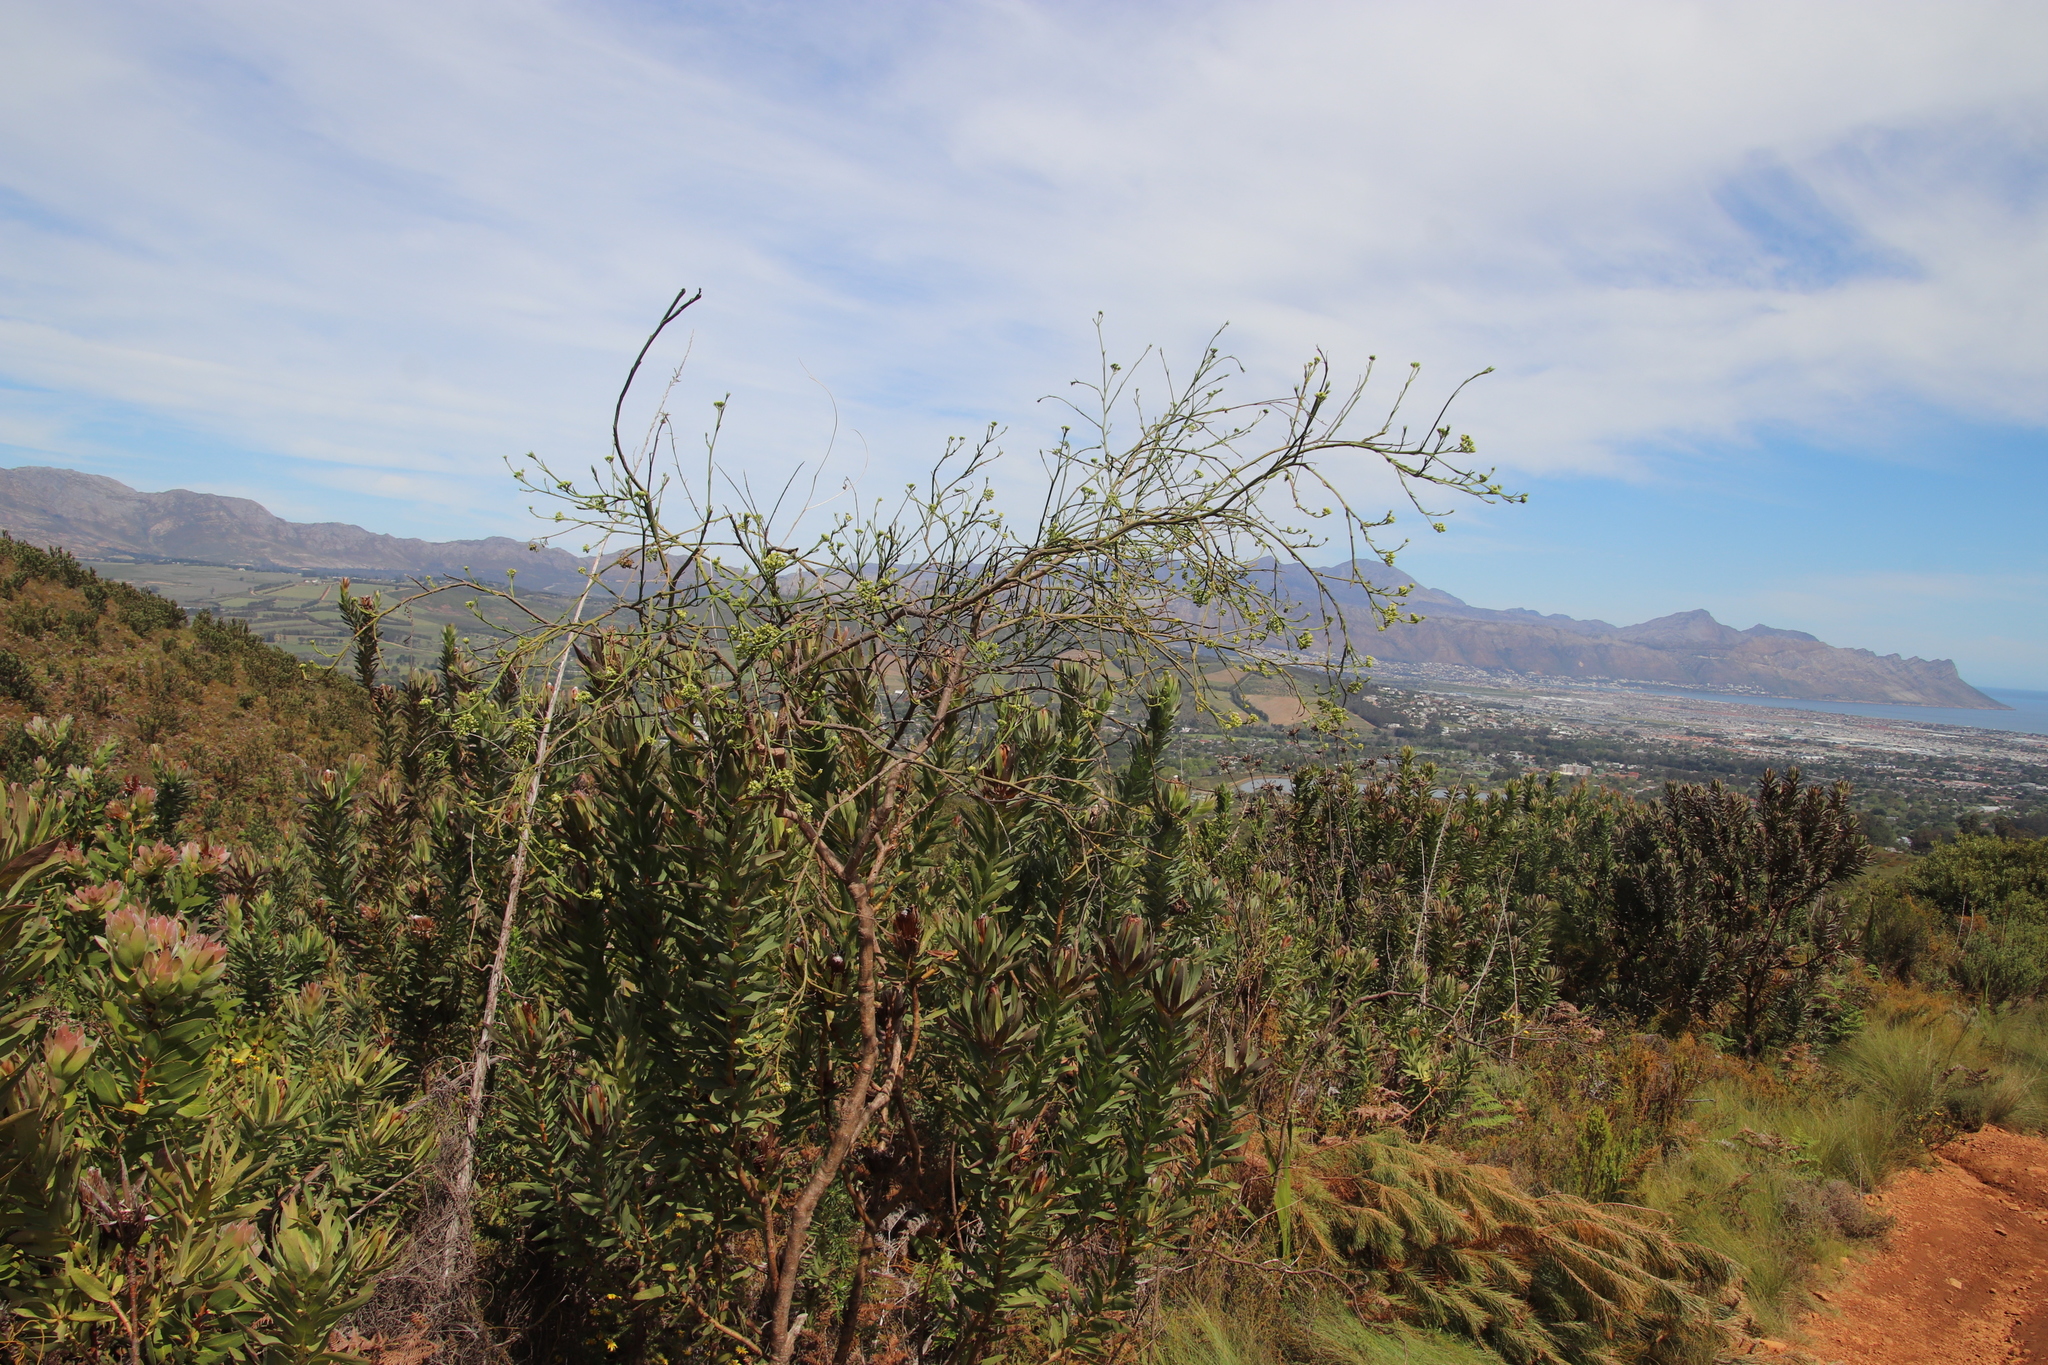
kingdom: Plantae
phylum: Tracheophyta
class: Magnoliopsida
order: Santalales
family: Thesiaceae
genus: Thesium
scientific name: Thesium strictum
